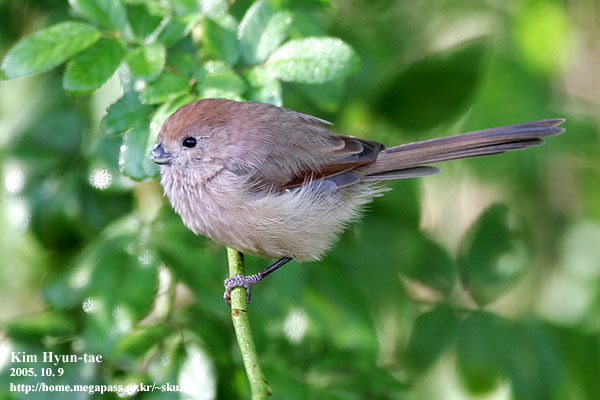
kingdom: Animalia
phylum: Chordata
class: Aves
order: Passeriformes
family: Sylviidae
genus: Sinosuthora
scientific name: Sinosuthora webbiana
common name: Vinous-throated parrotbill
